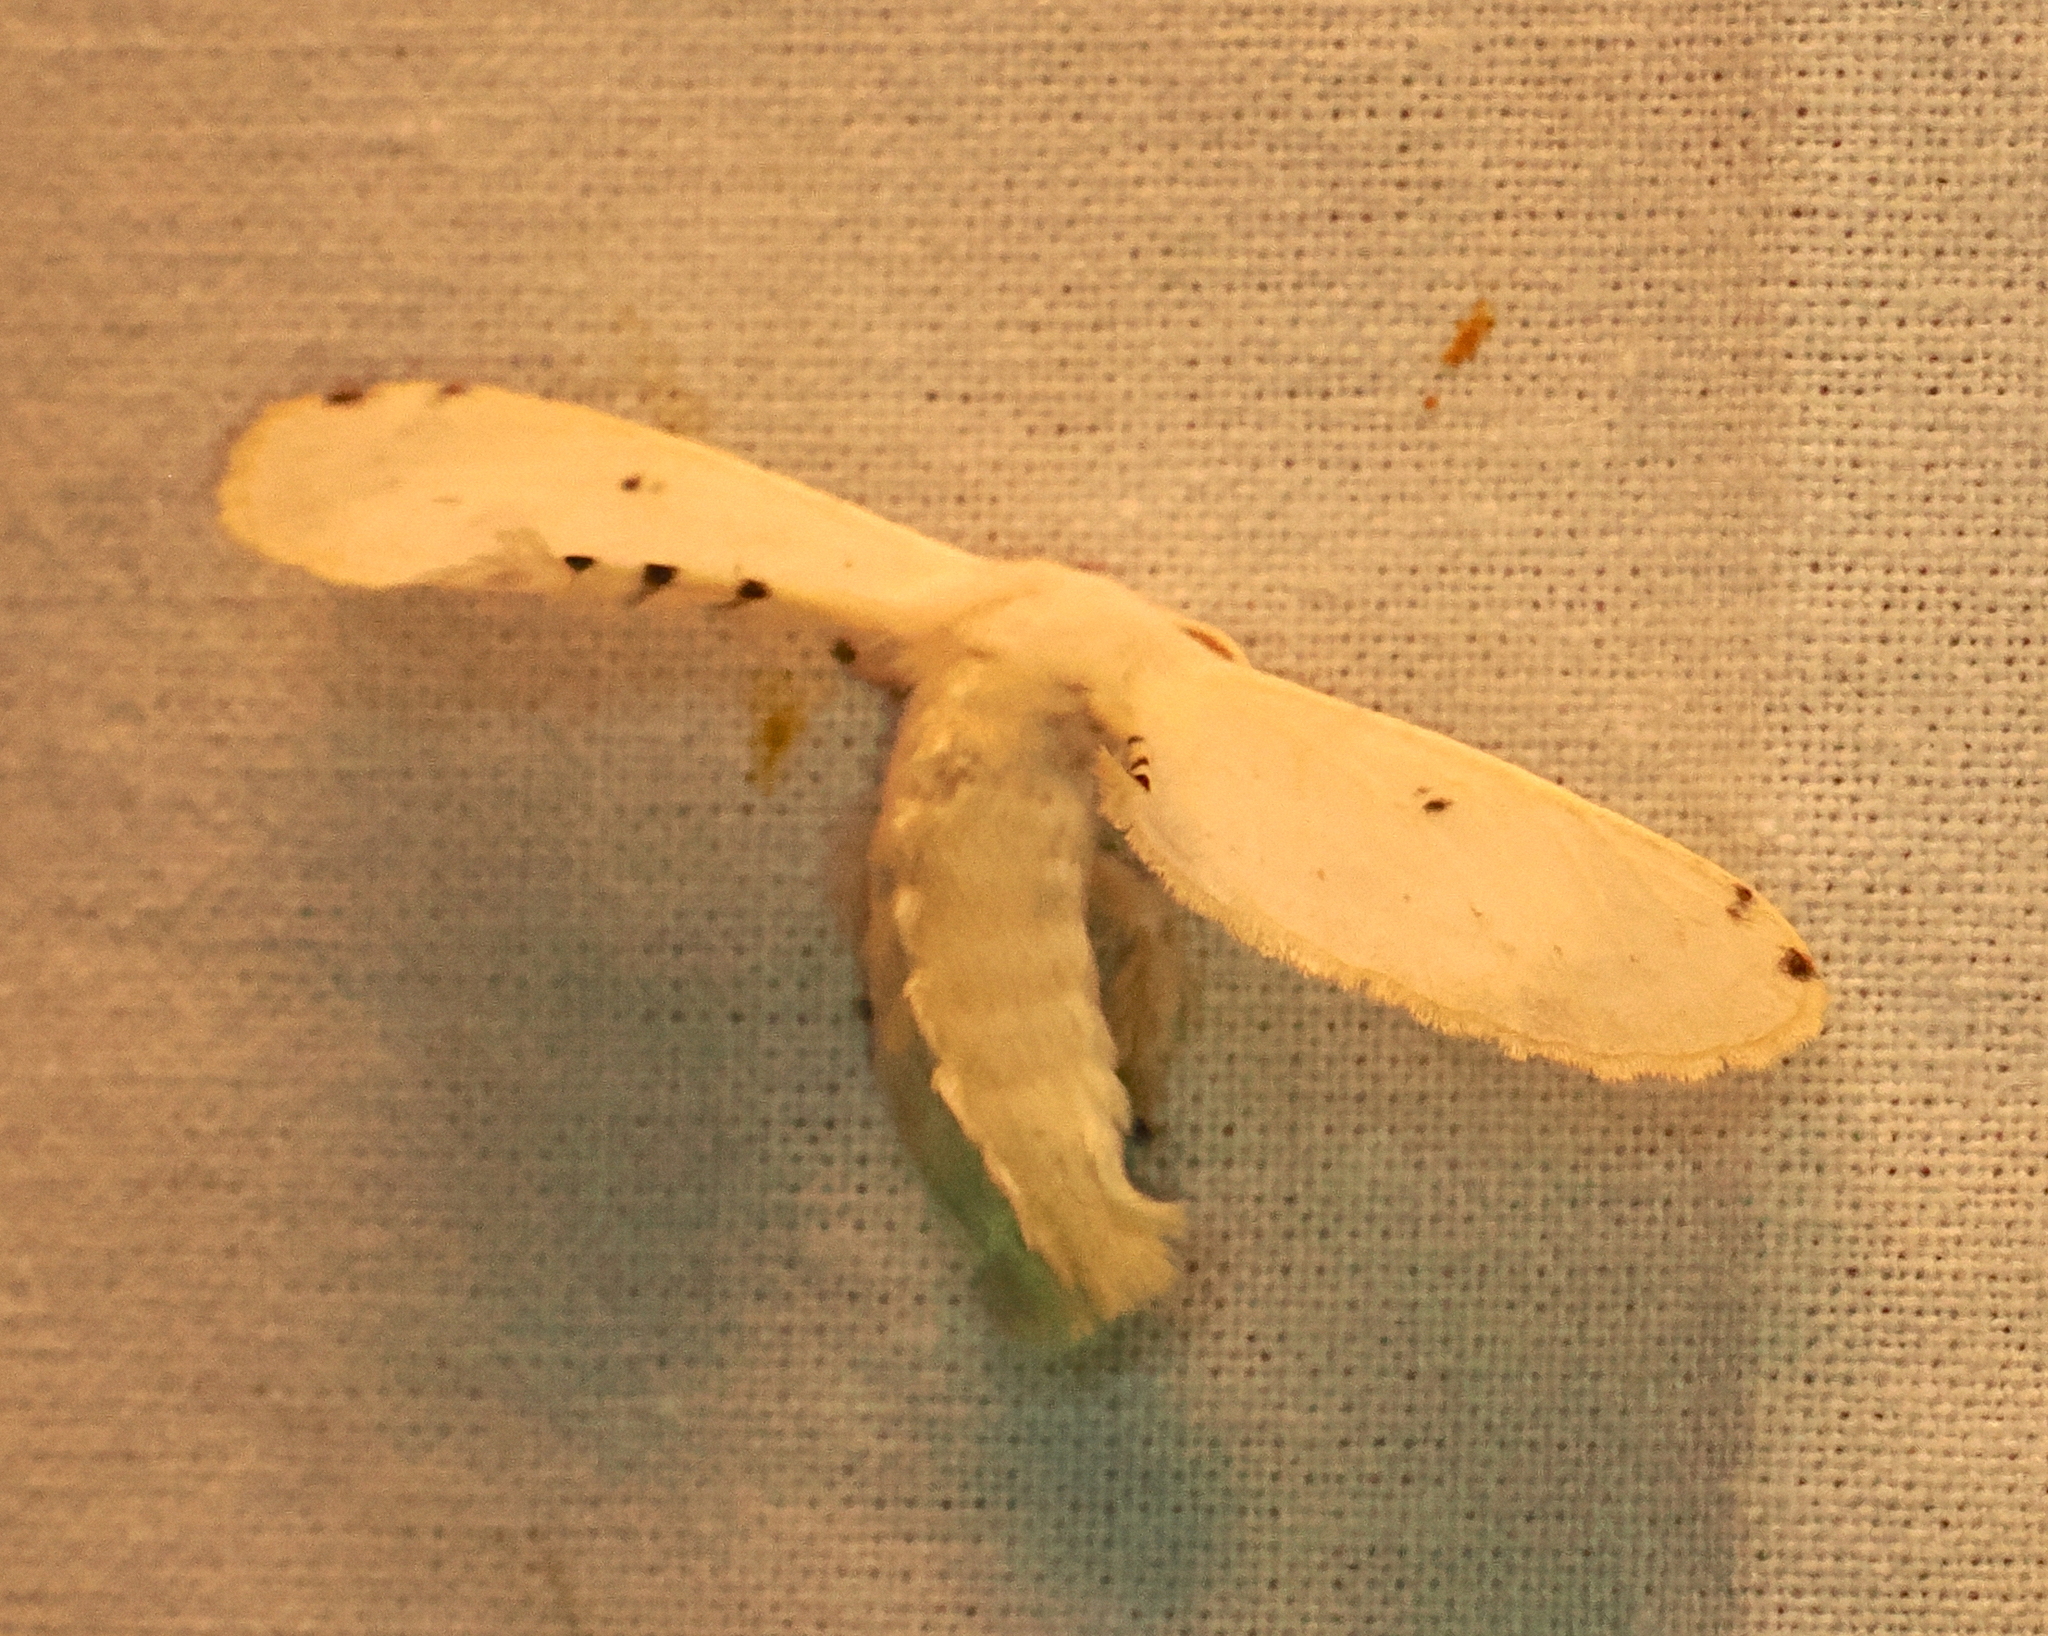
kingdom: Animalia
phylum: Arthropoda
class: Insecta
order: Lepidoptera
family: Bombycidae
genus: Penicillifera
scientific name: Penicillifera apicalis
